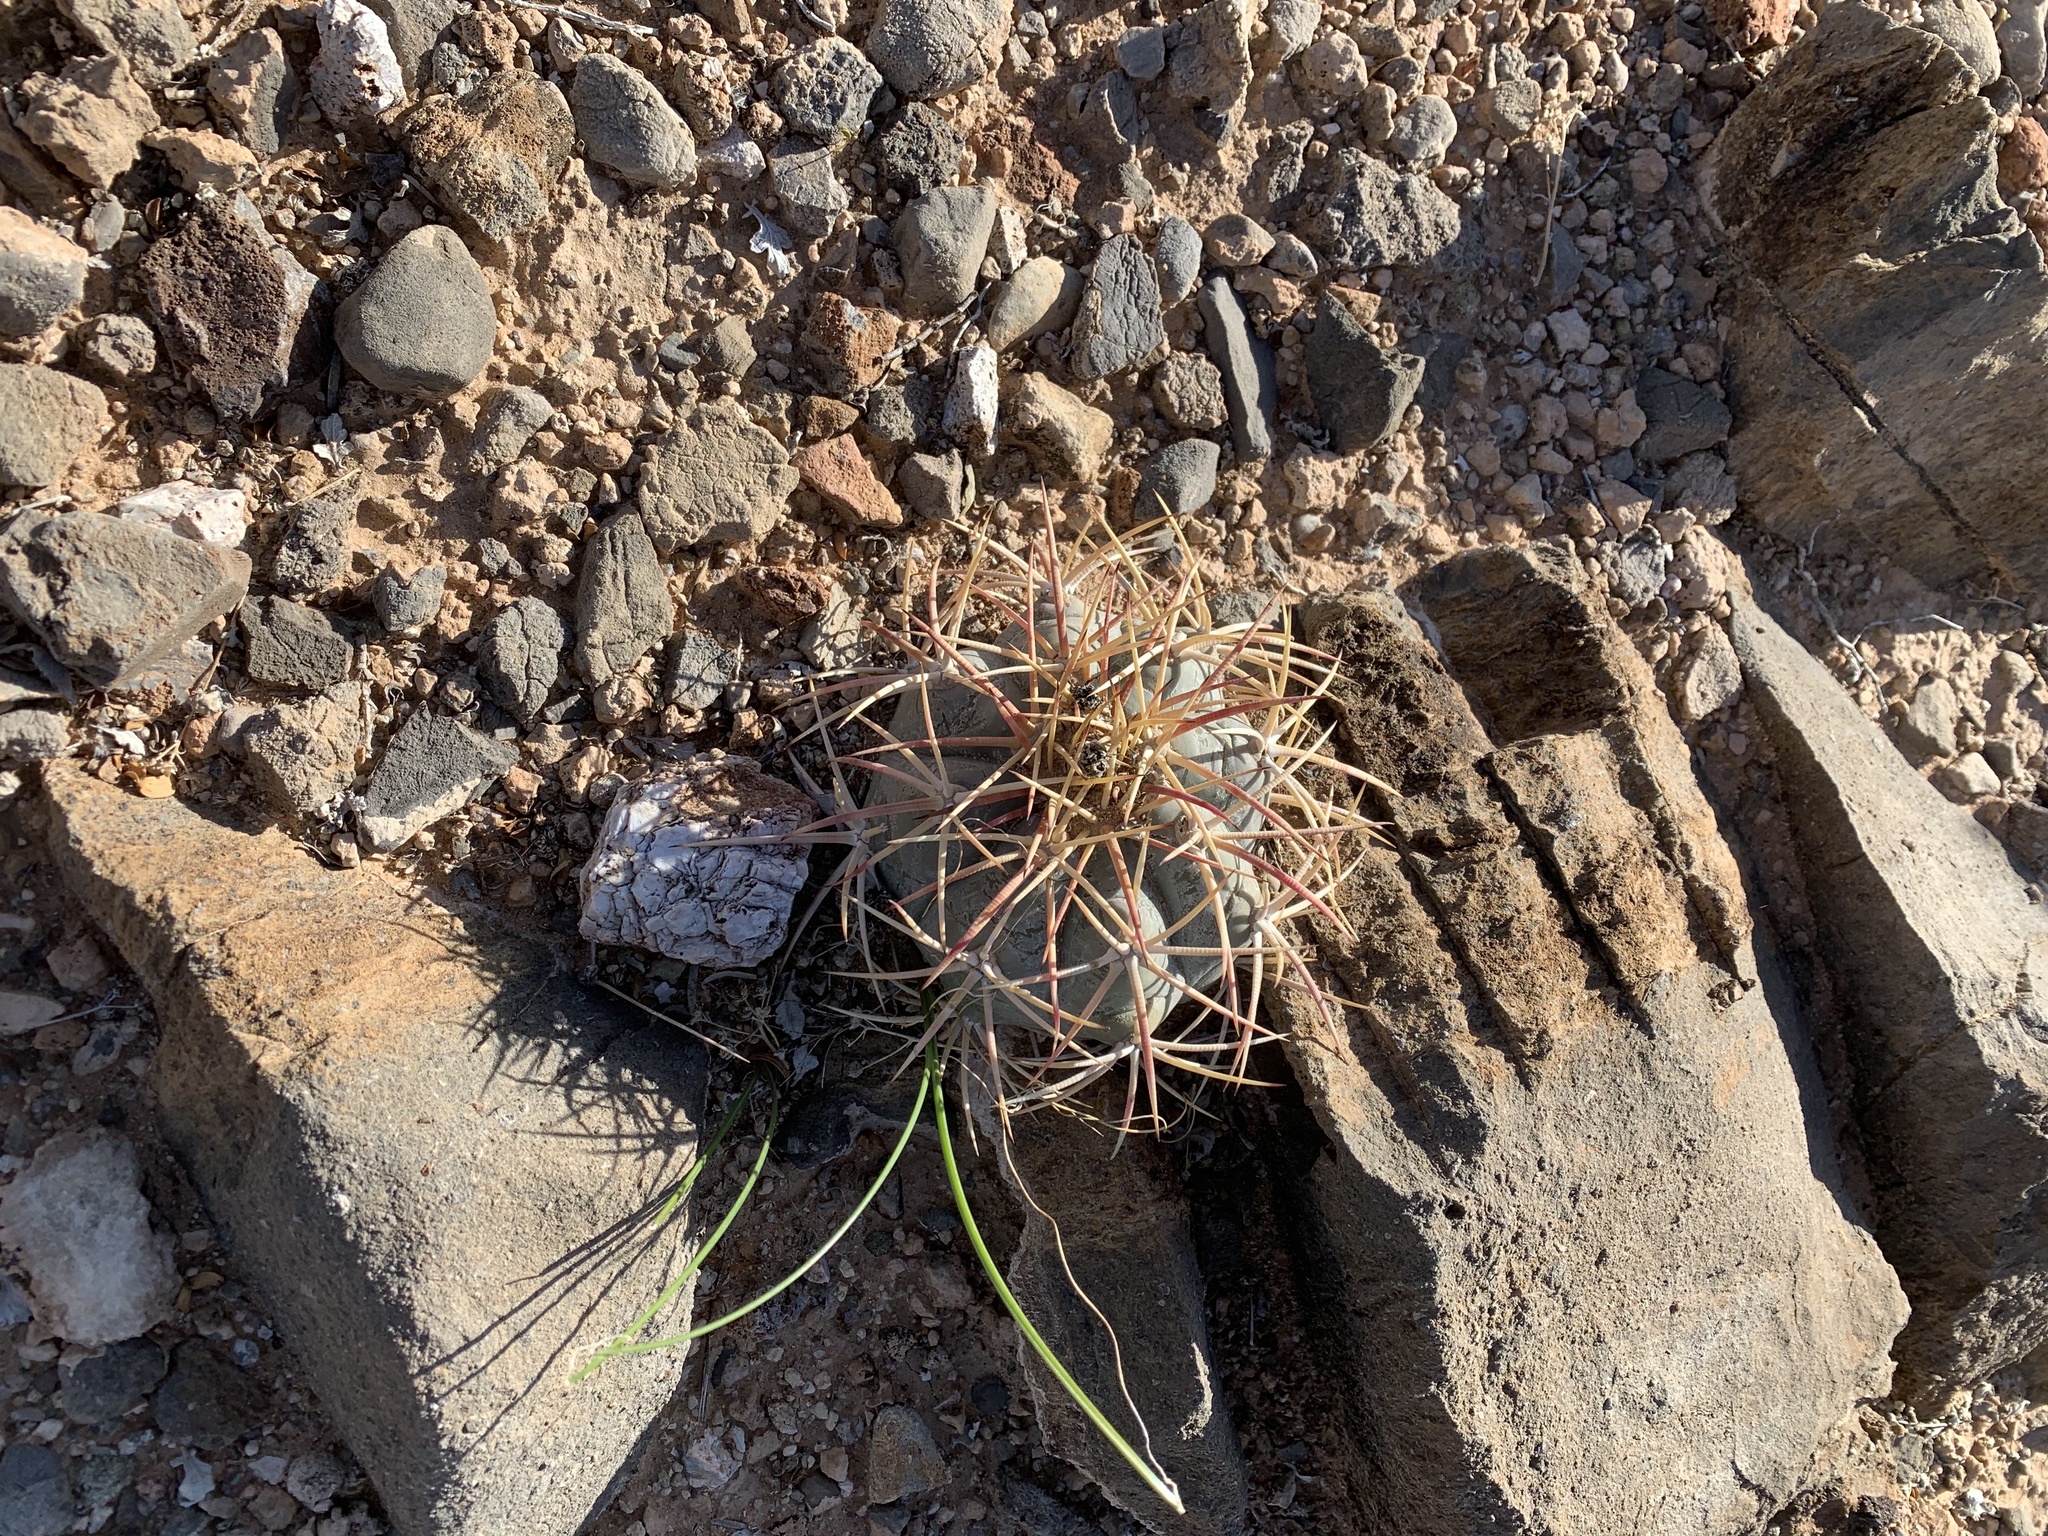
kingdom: Plantae
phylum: Tracheophyta
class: Magnoliopsida
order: Caryophyllales
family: Cactaceae
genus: Echinocactus
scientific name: Echinocactus horizonthalonius
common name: Devilshead
